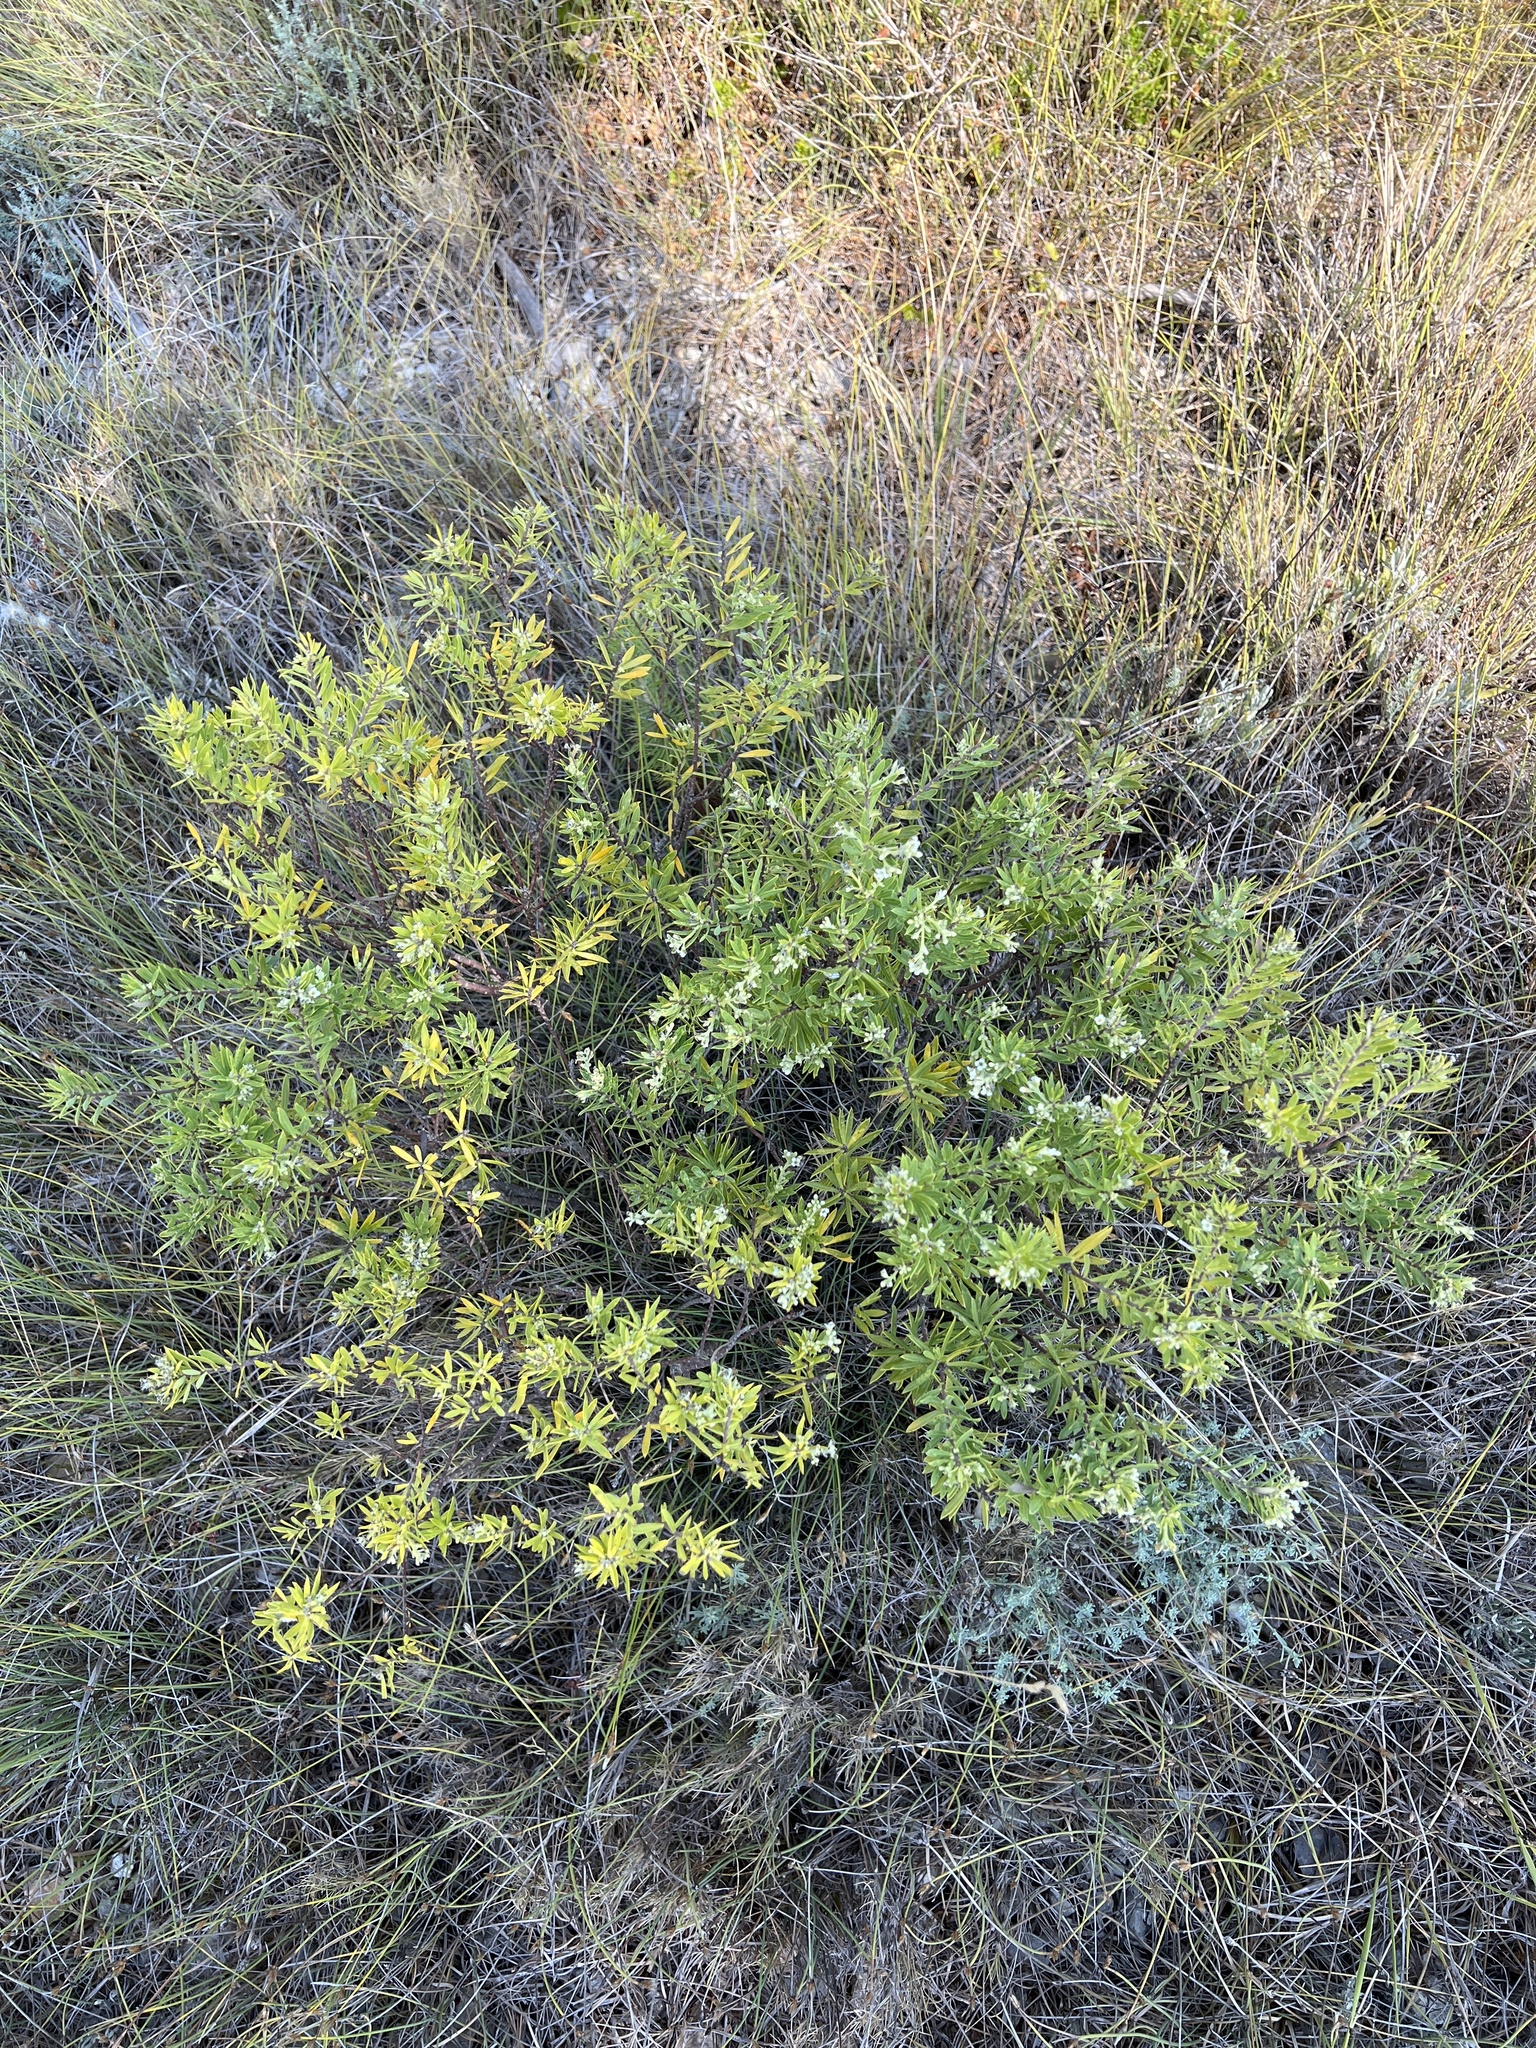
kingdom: Plantae
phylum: Tracheophyta
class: Magnoliopsida
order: Malvales
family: Thymelaeaceae
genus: Daphne
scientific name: Daphne gnidium
